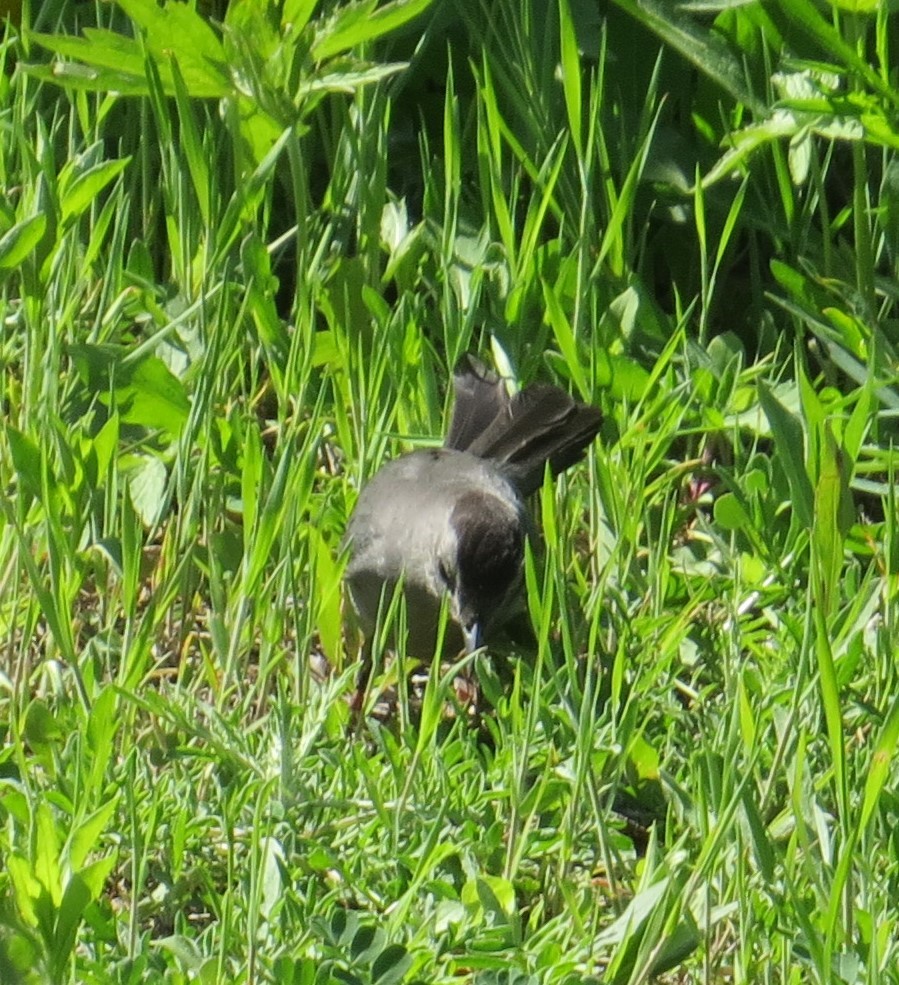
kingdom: Animalia
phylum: Chordata
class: Aves
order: Passeriformes
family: Mimidae
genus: Dumetella
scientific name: Dumetella carolinensis
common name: Gray catbird
